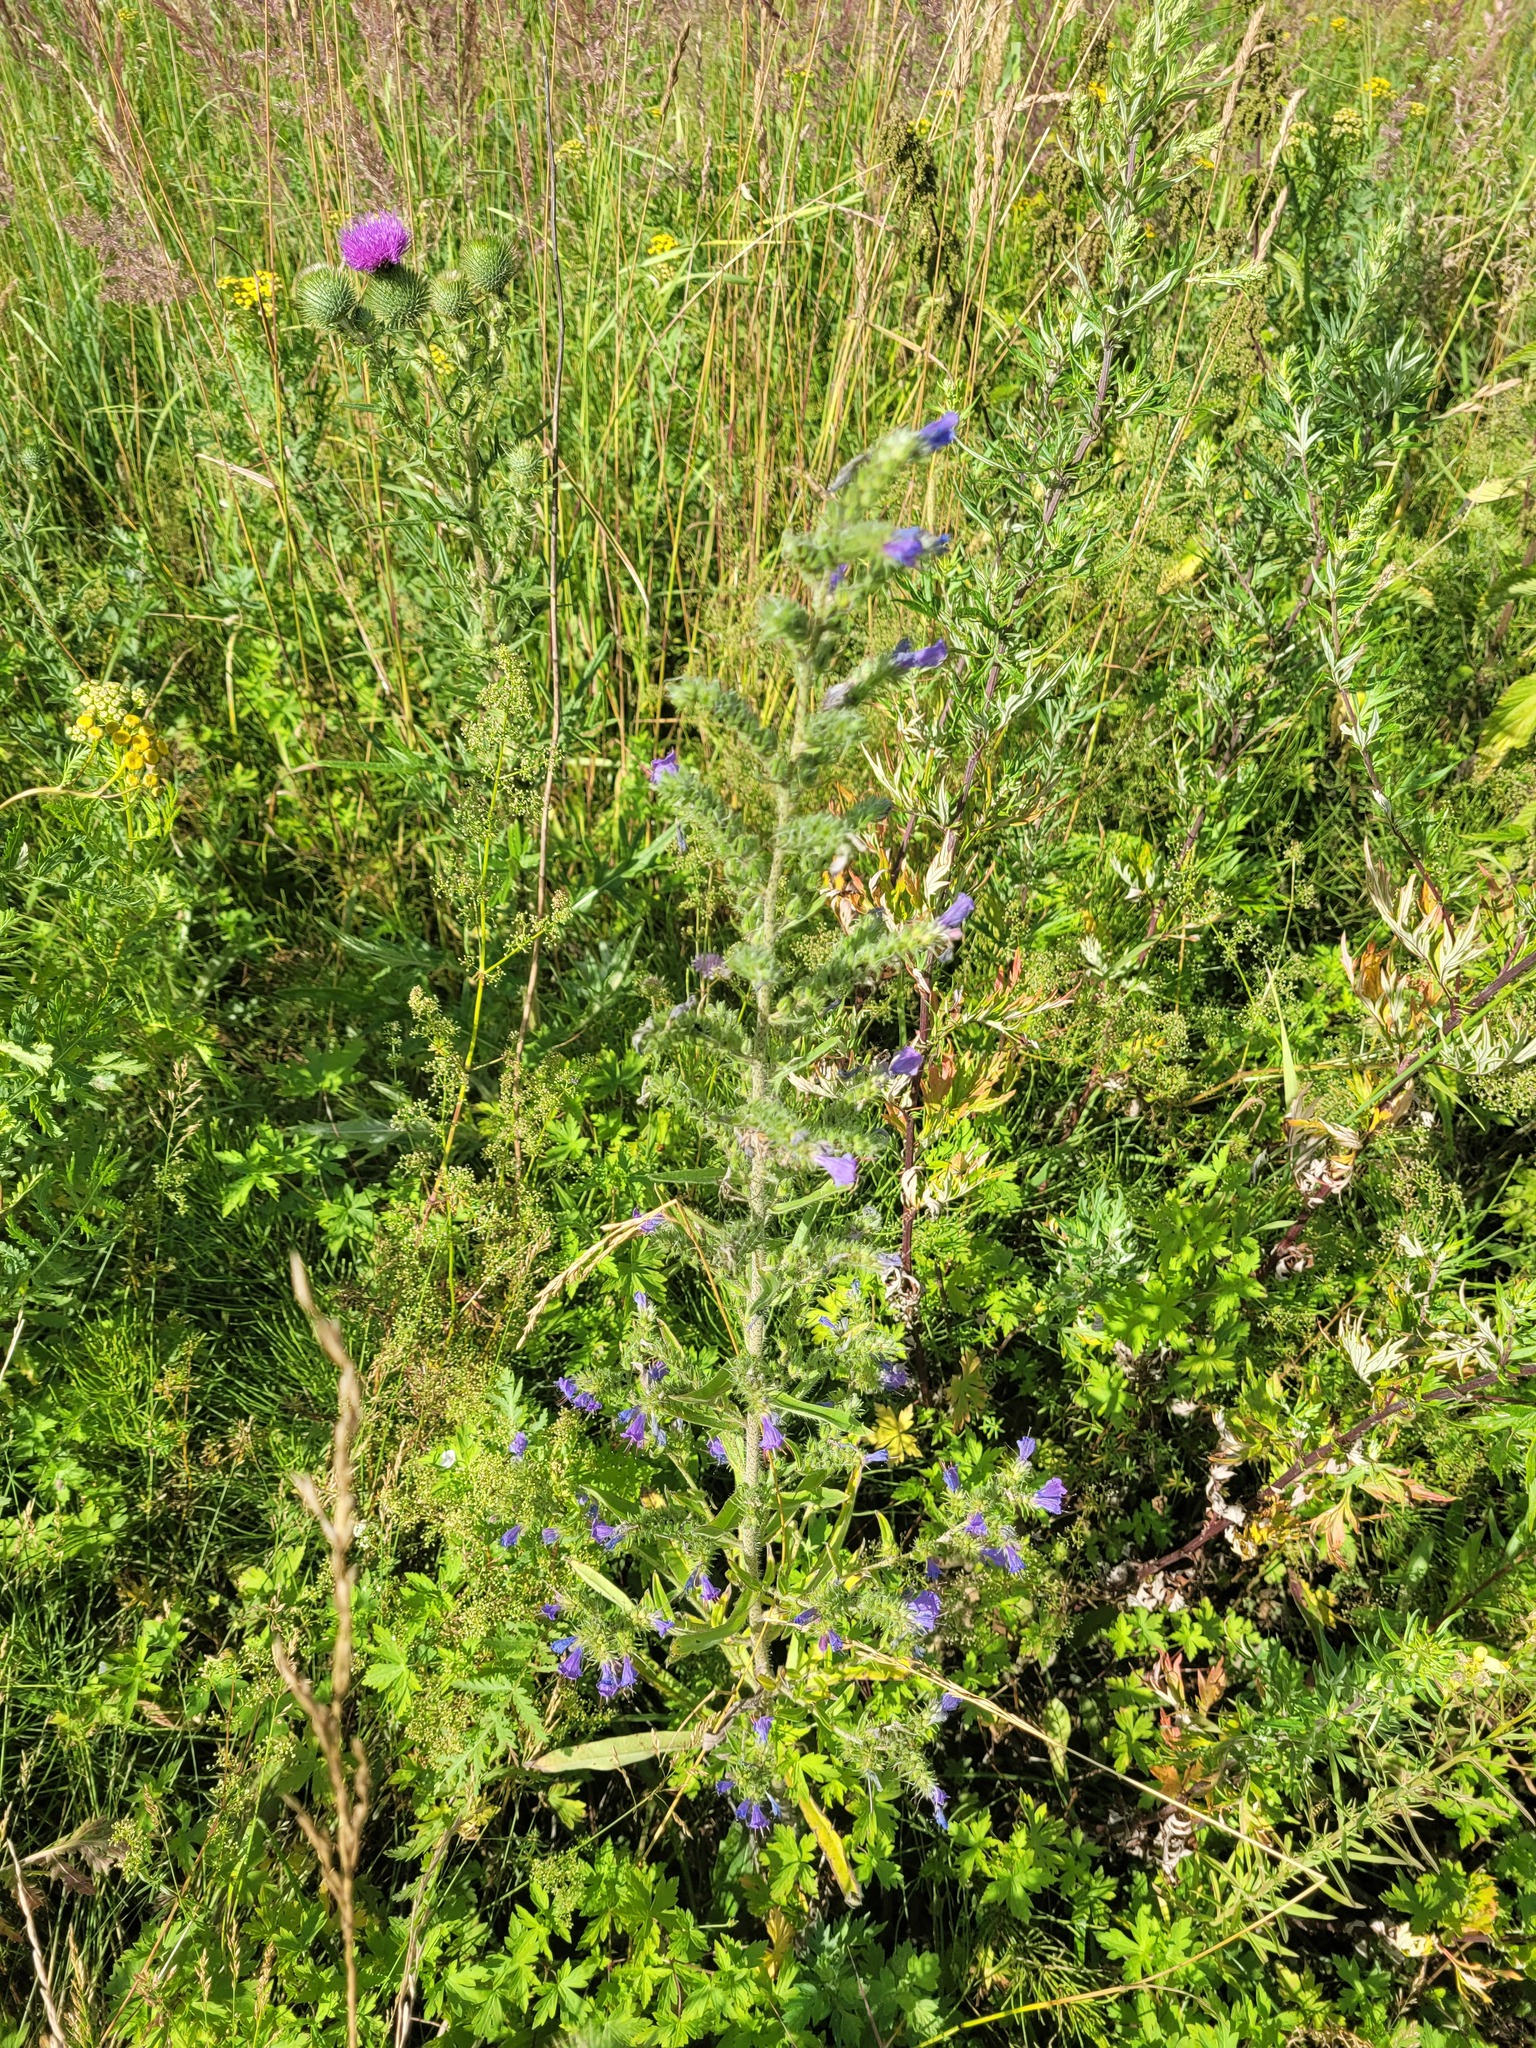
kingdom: Plantae
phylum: Tracheophyta
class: Magnoliopsida
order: Boraginales
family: Boraginaceae
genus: Echium
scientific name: Echium vulgare
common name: Common viper's bugloss
